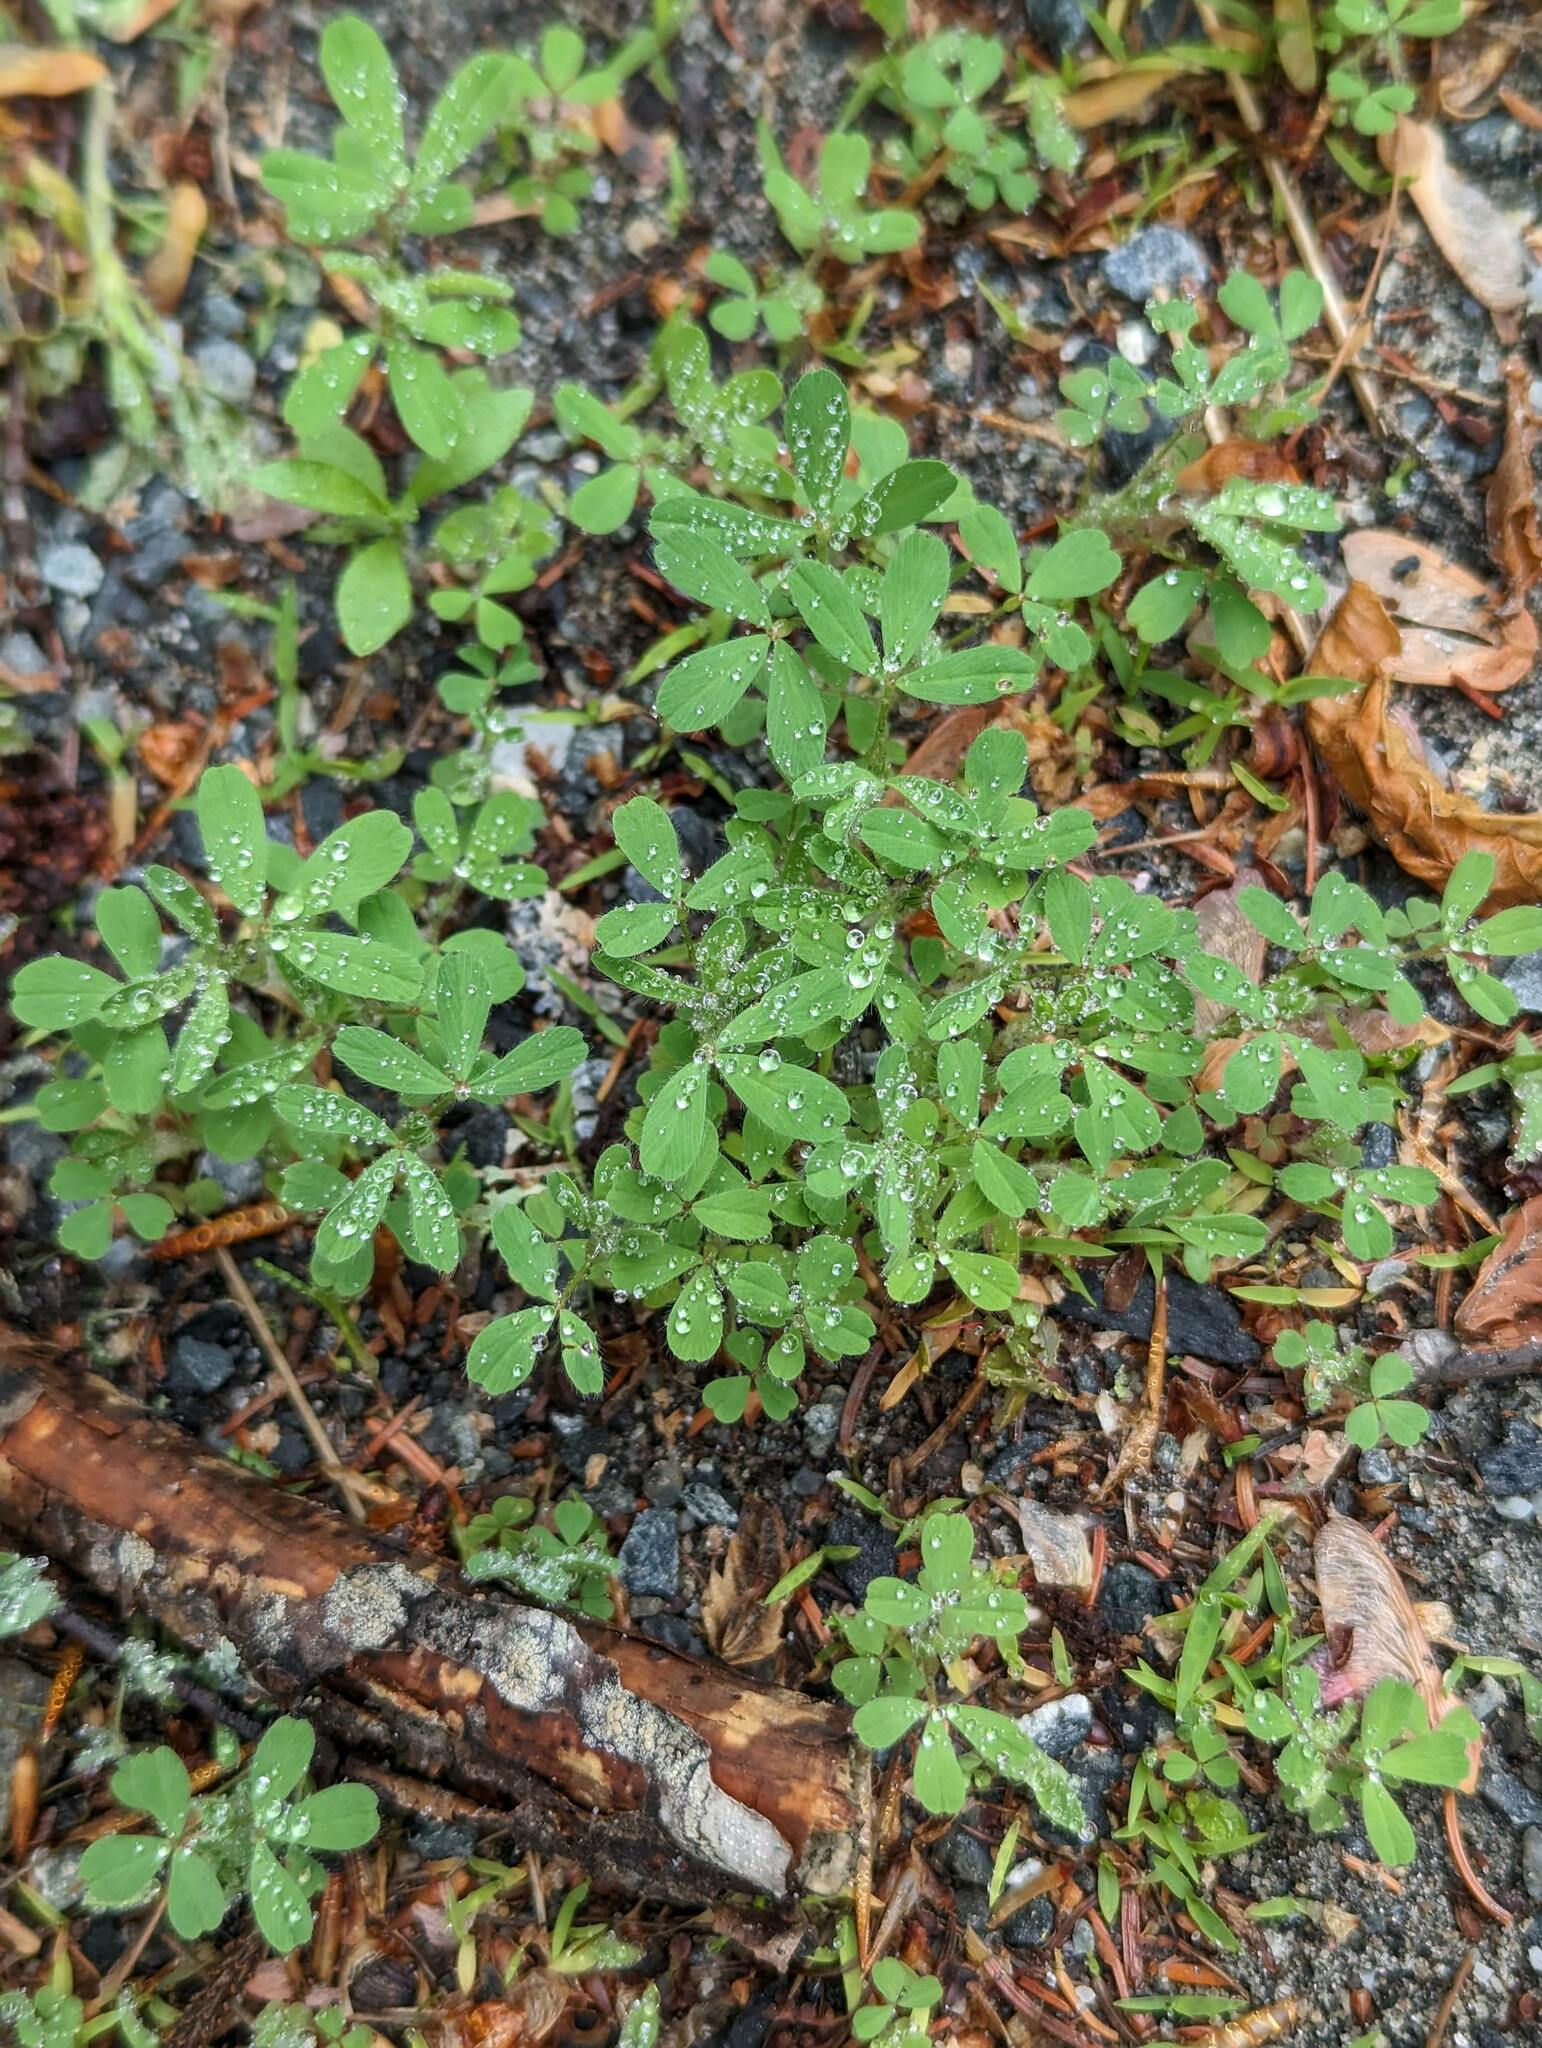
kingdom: Plantae
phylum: Tracheophyta
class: Magnoliopsida
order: Fabales
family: Fabaceae
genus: Trifolium
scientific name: Trifolium arvense
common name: Hare's-foot clover
